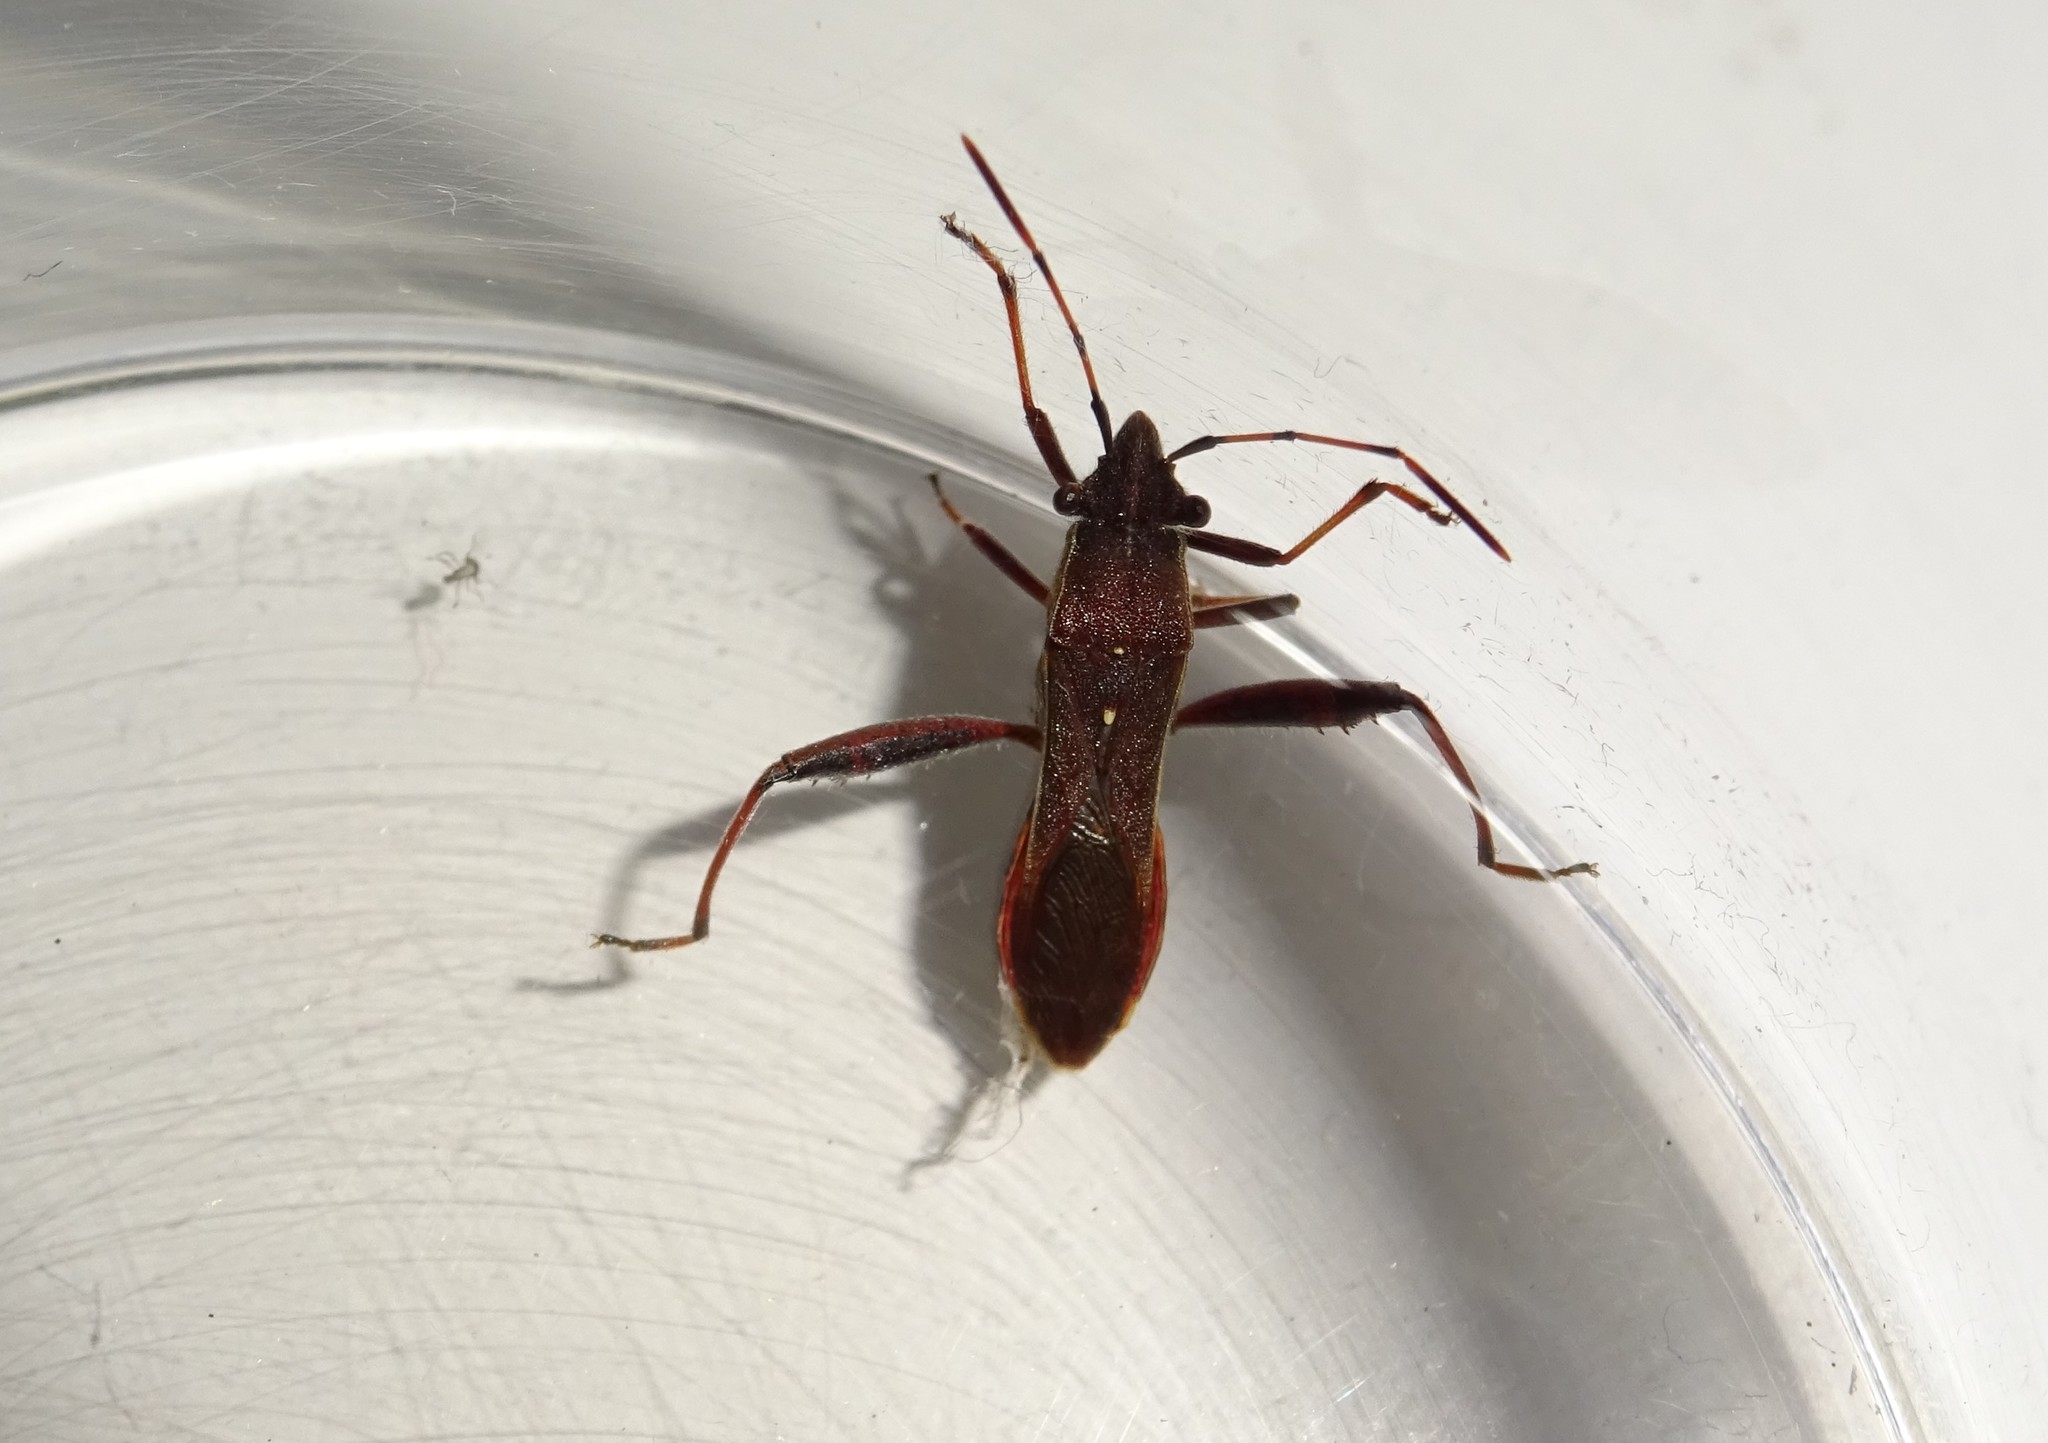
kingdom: Animalia
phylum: Arthropoda
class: Insecta
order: Hemiptera
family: Alydidae
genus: Camptopus
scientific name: Camptopus lateralis
